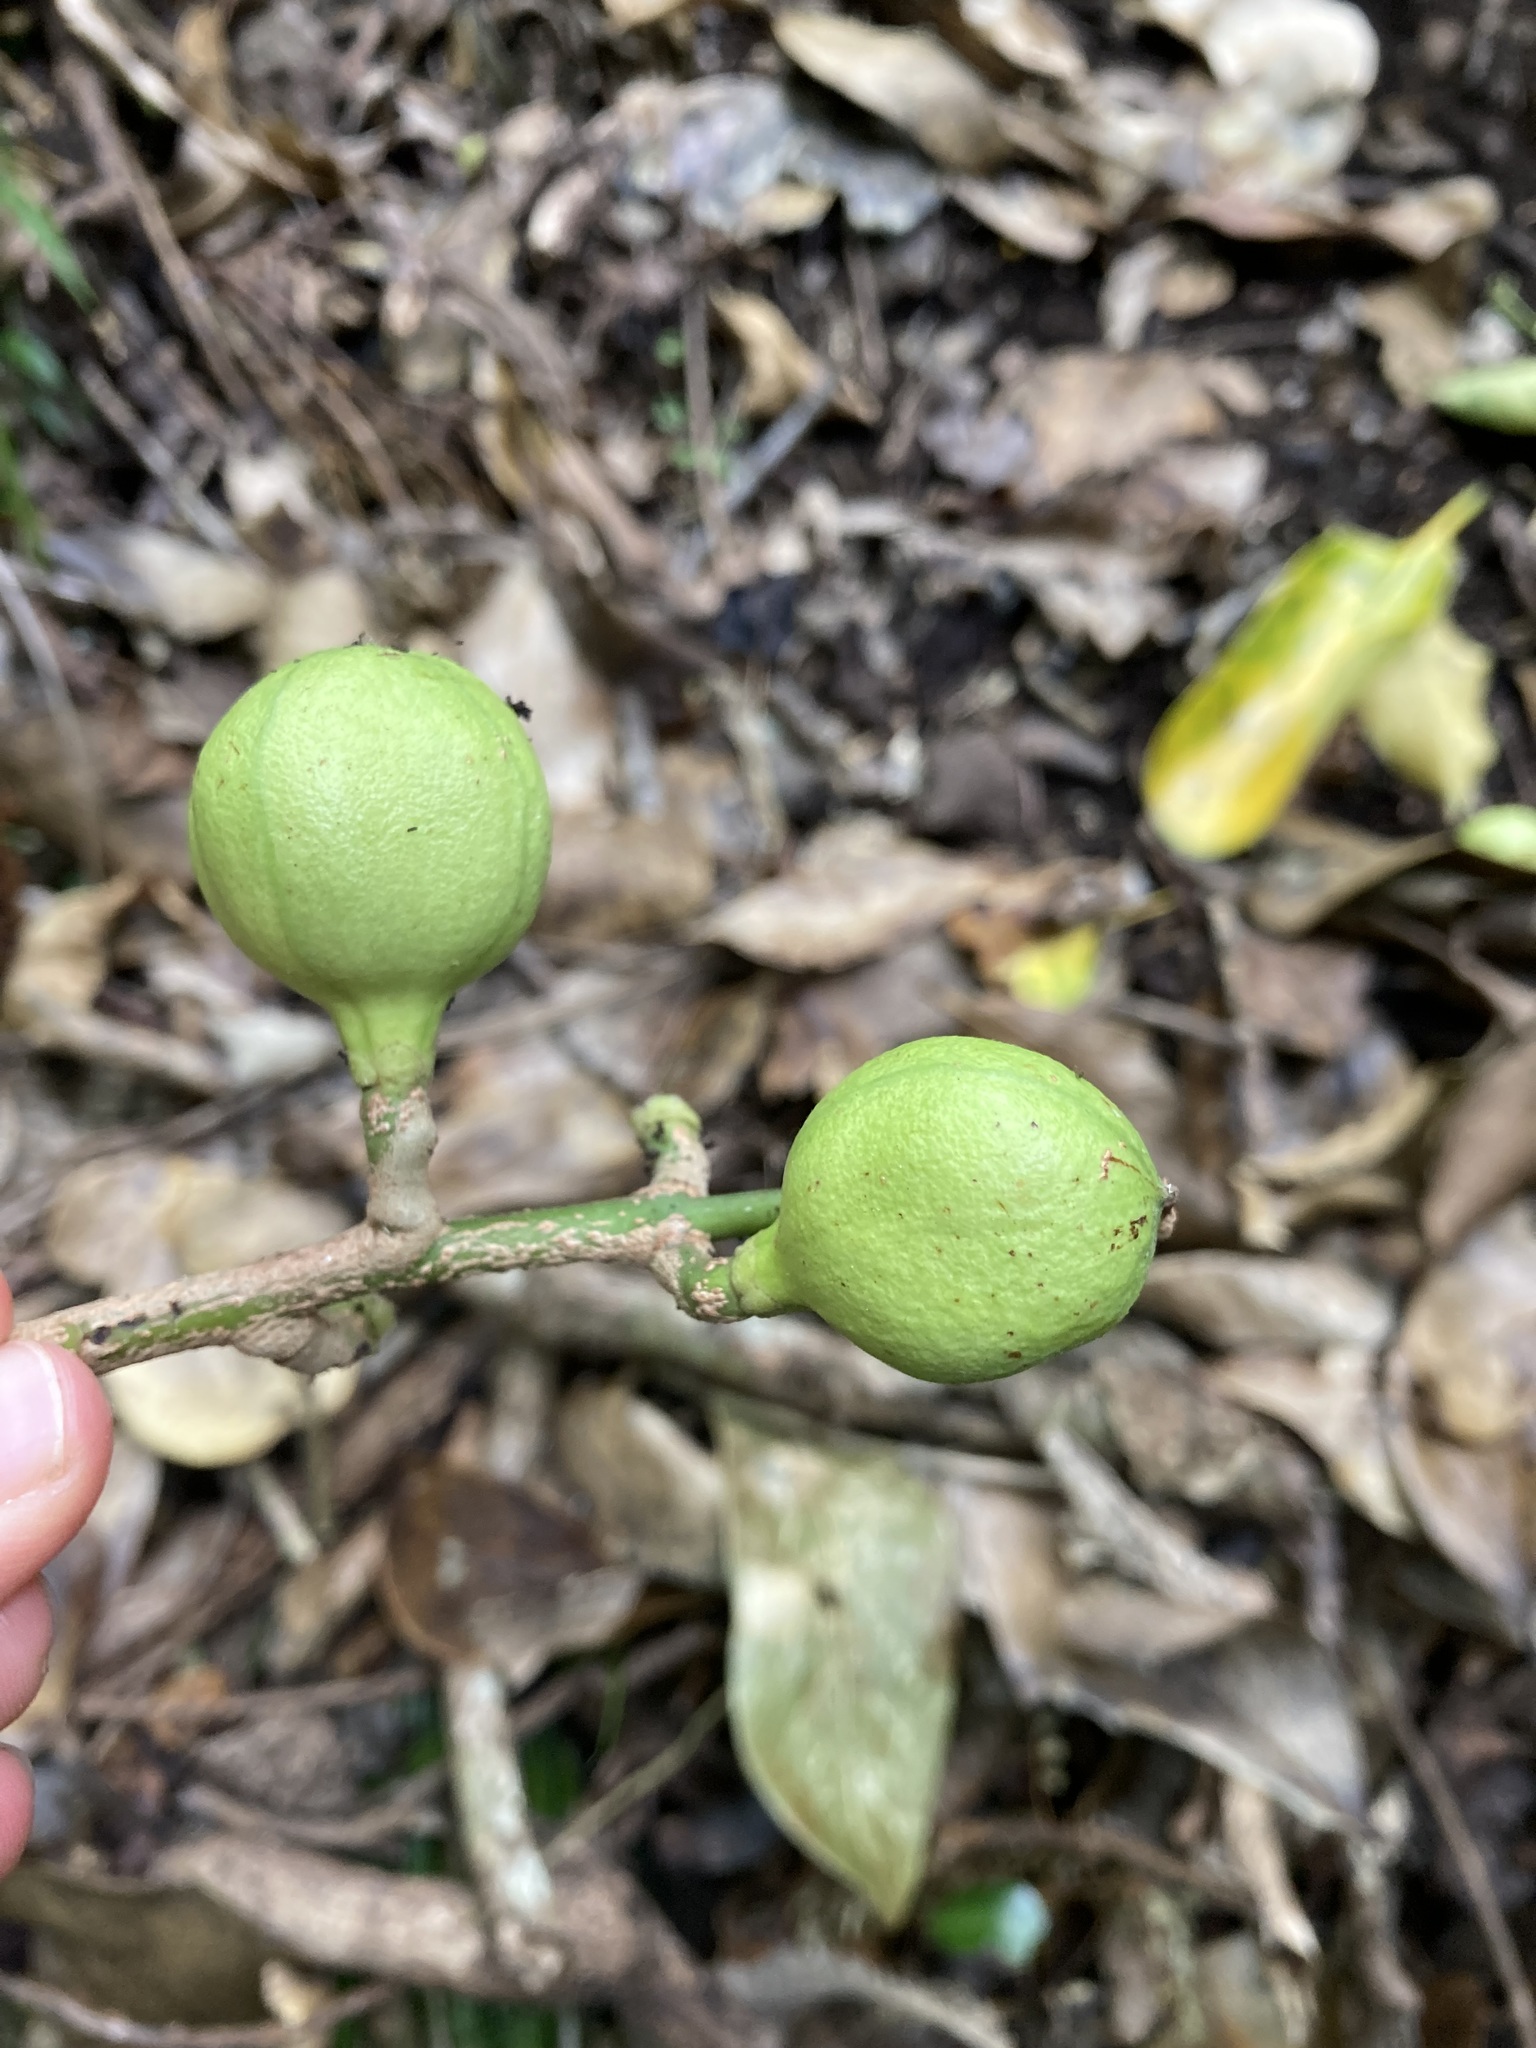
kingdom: Plantae
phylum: Tracheophyta
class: Magnoliopsida
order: Sapindales
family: Meliaceae
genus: Didymocheton
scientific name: Didymocheton spectabilis
